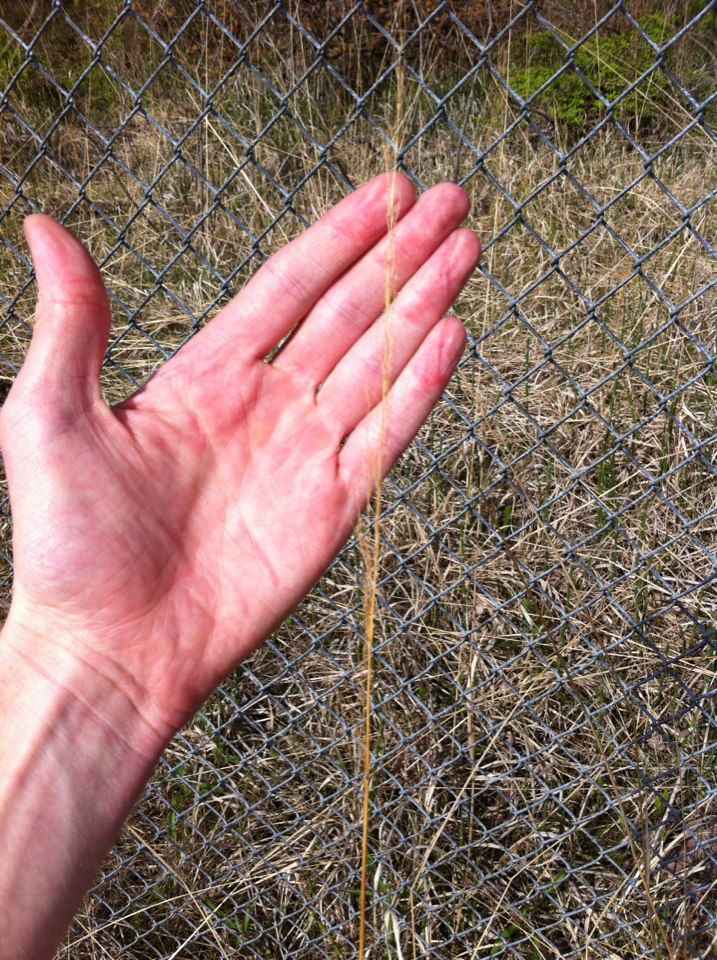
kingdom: Plantae
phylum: Tracheophyta
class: Liliopsida
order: Poales
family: Poaceae
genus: Sorghastrum
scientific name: Sorghastrum nutans
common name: Indian grass
